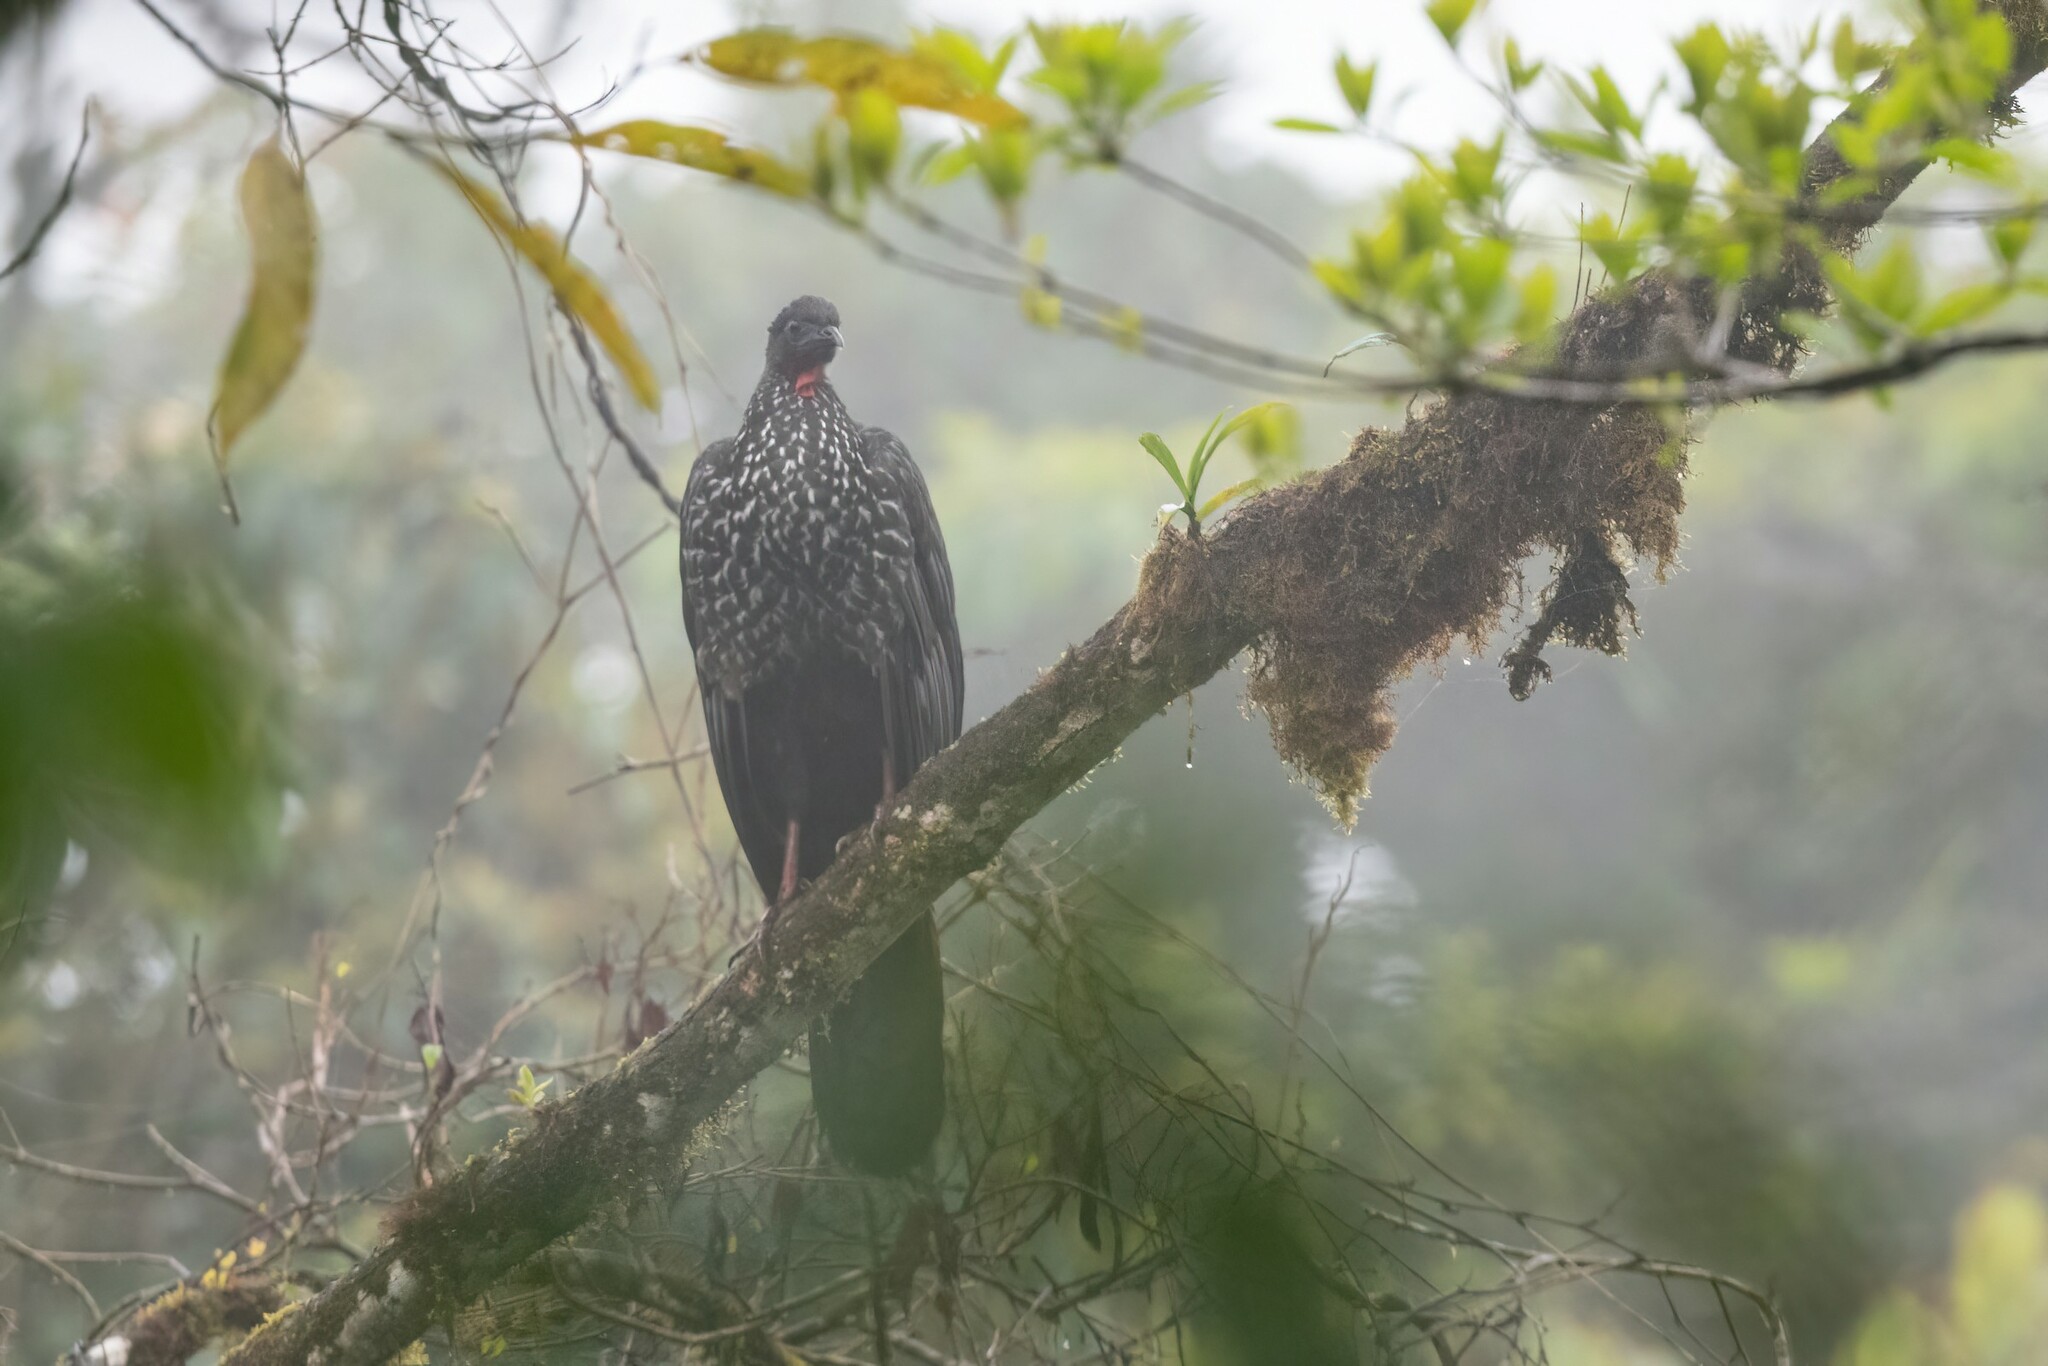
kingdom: Animalia
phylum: Chordata
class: Aves
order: Galliformes
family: Cracidae
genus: Penelope
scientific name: Penelope purpurascens
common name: Crested guan
